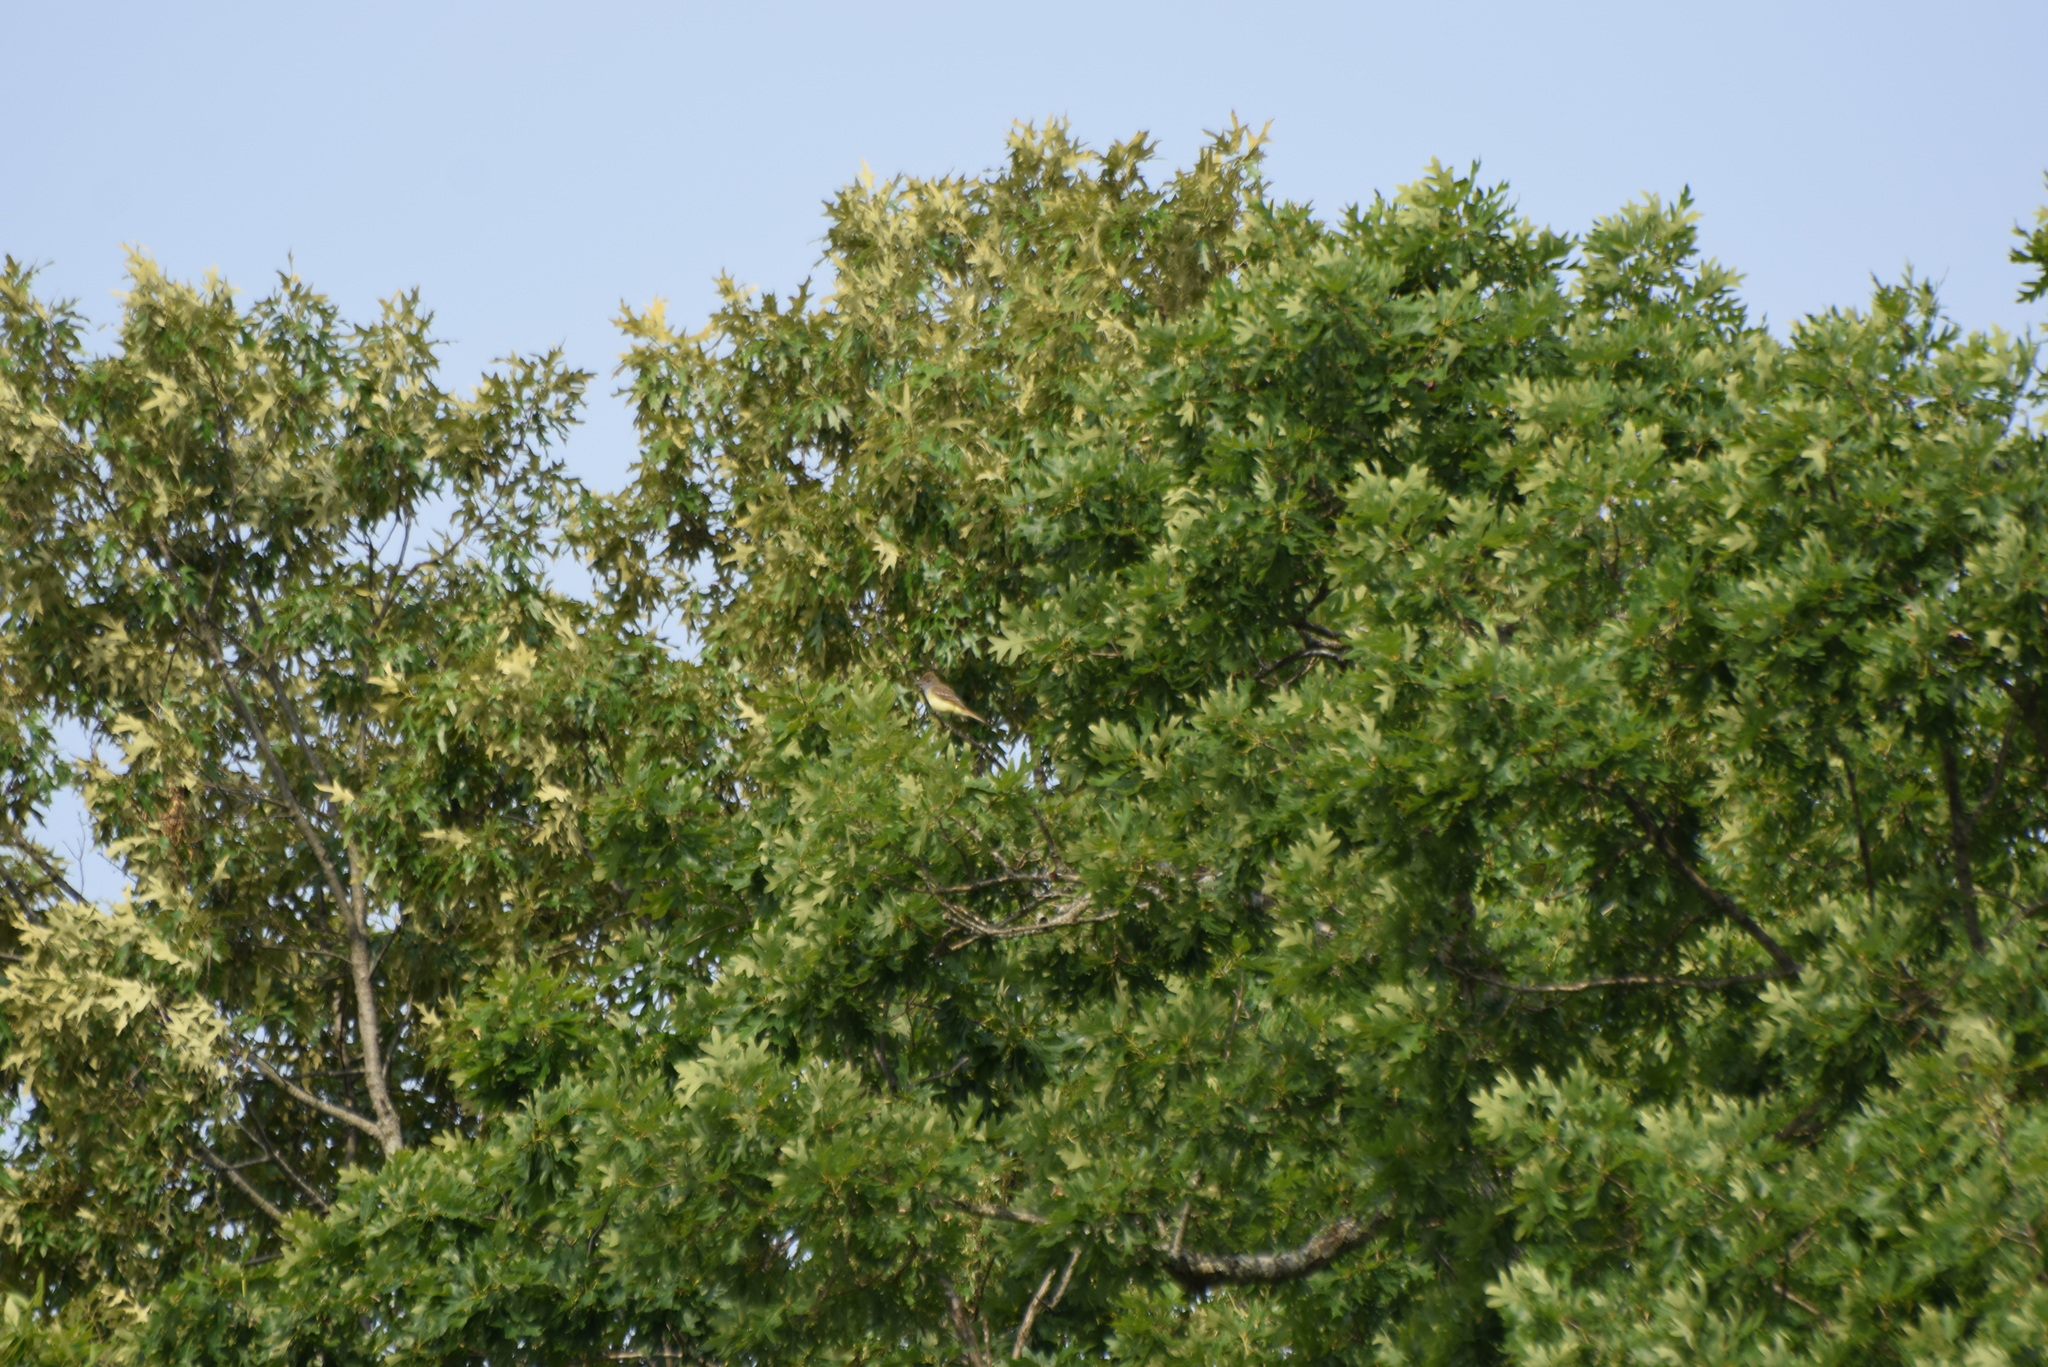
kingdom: Animalia
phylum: Chordata
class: Aves
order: Passeriformes
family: Tyrannidae
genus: Myiarchus
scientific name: Myiarchus crinitus
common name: Great crested flycatcher
